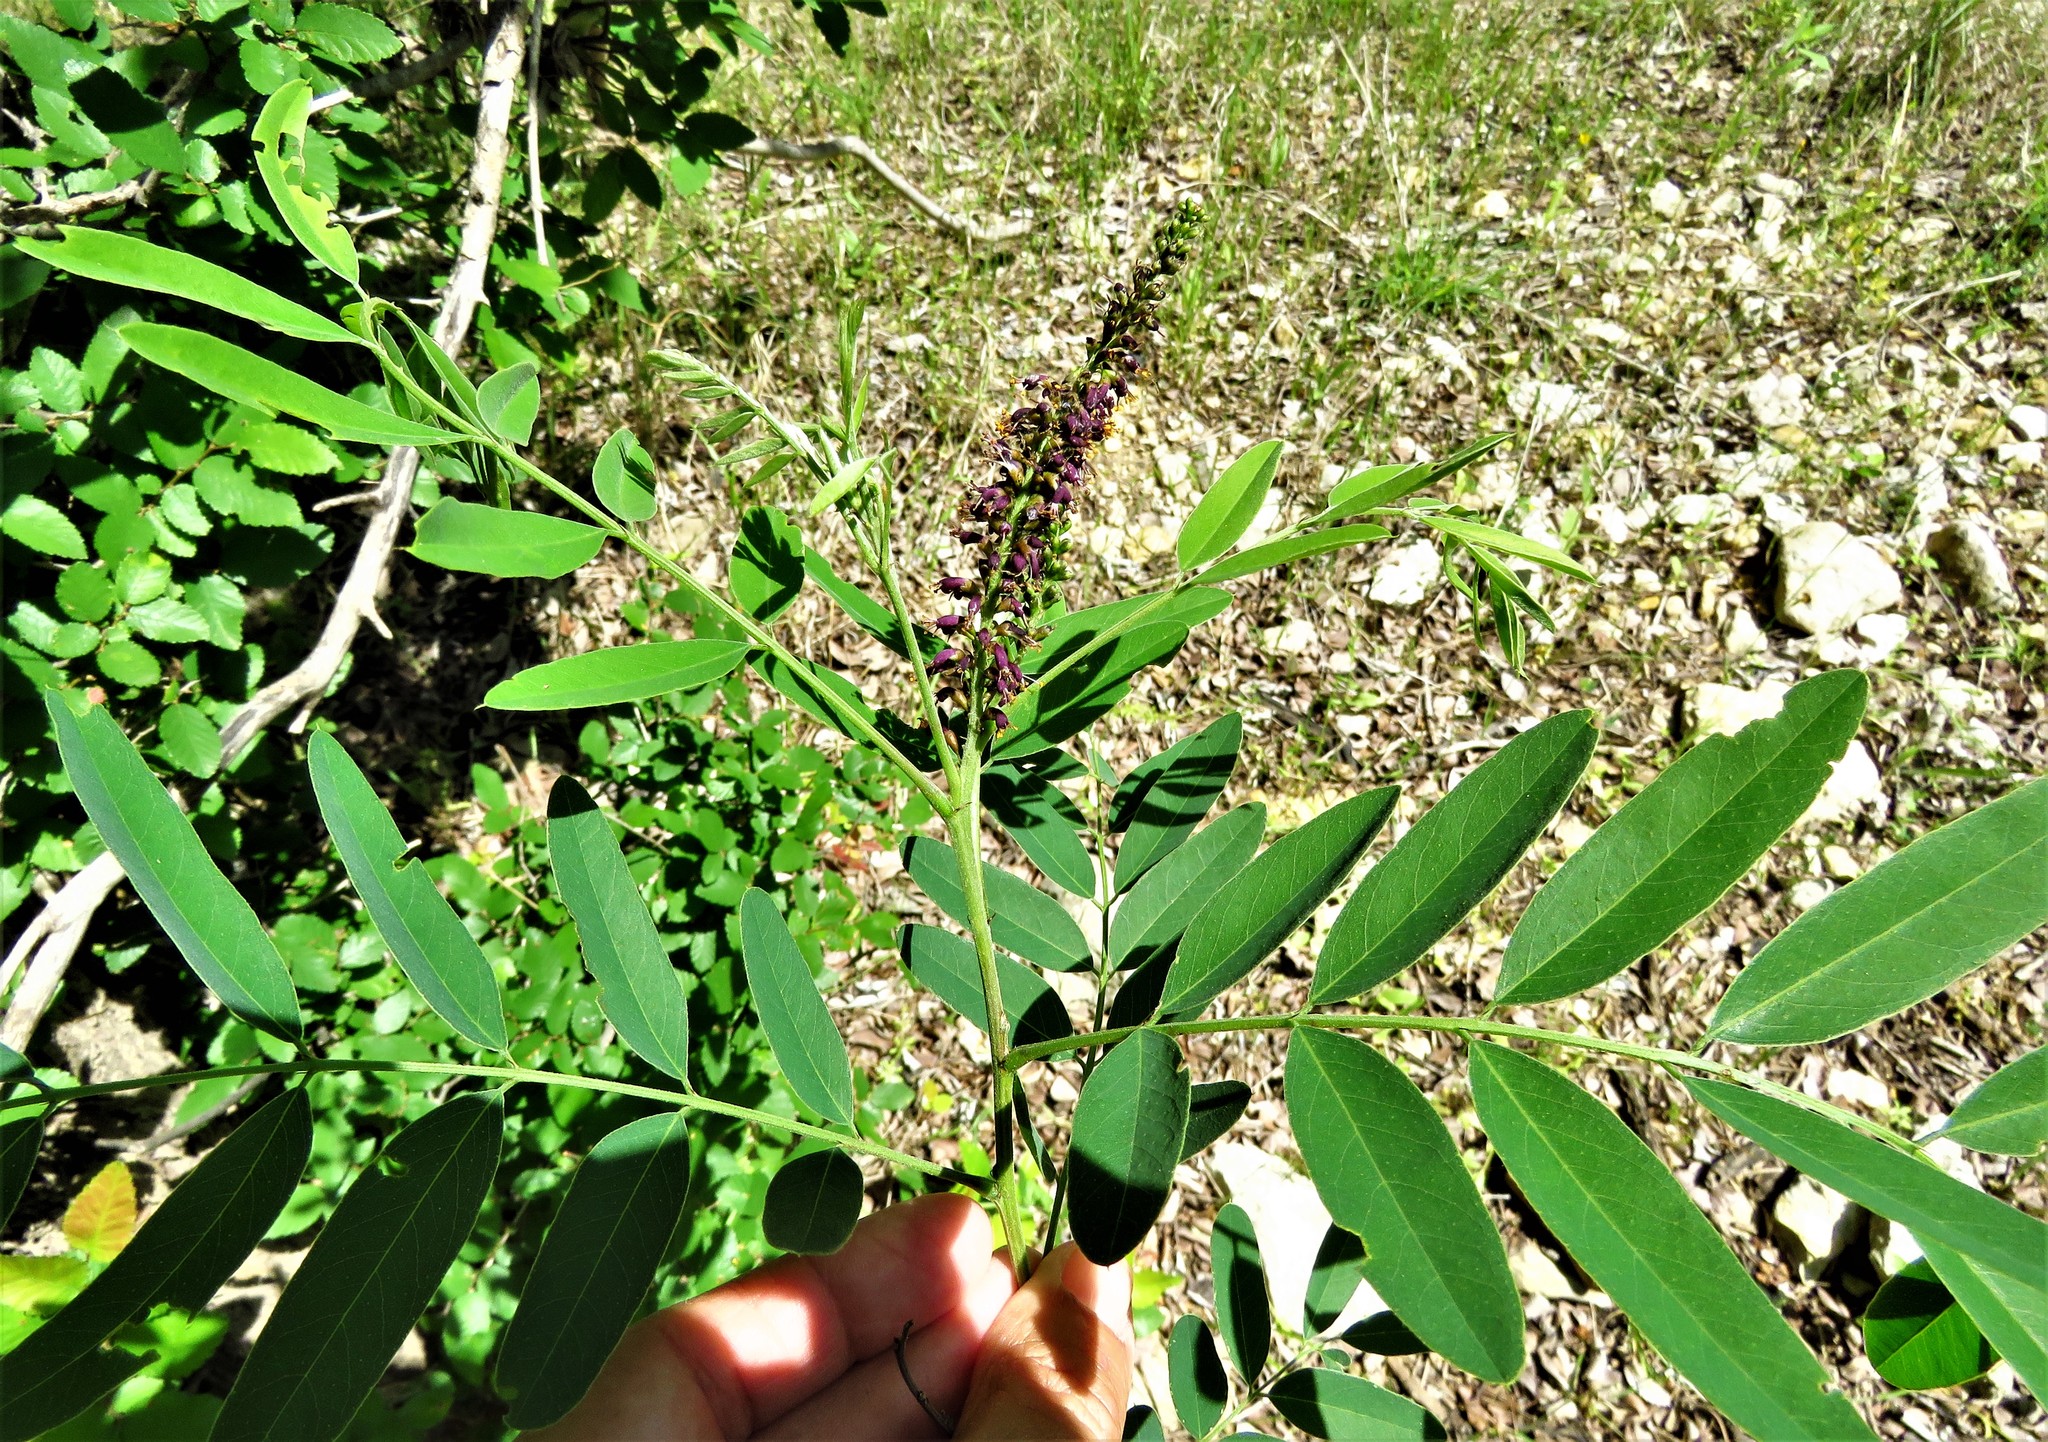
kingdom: Plantae
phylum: Tracheophyta
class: Magnoliopsida
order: Fabales
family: Fabaceae
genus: Amorpha
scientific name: Amorpha fruticosa
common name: False indigo
